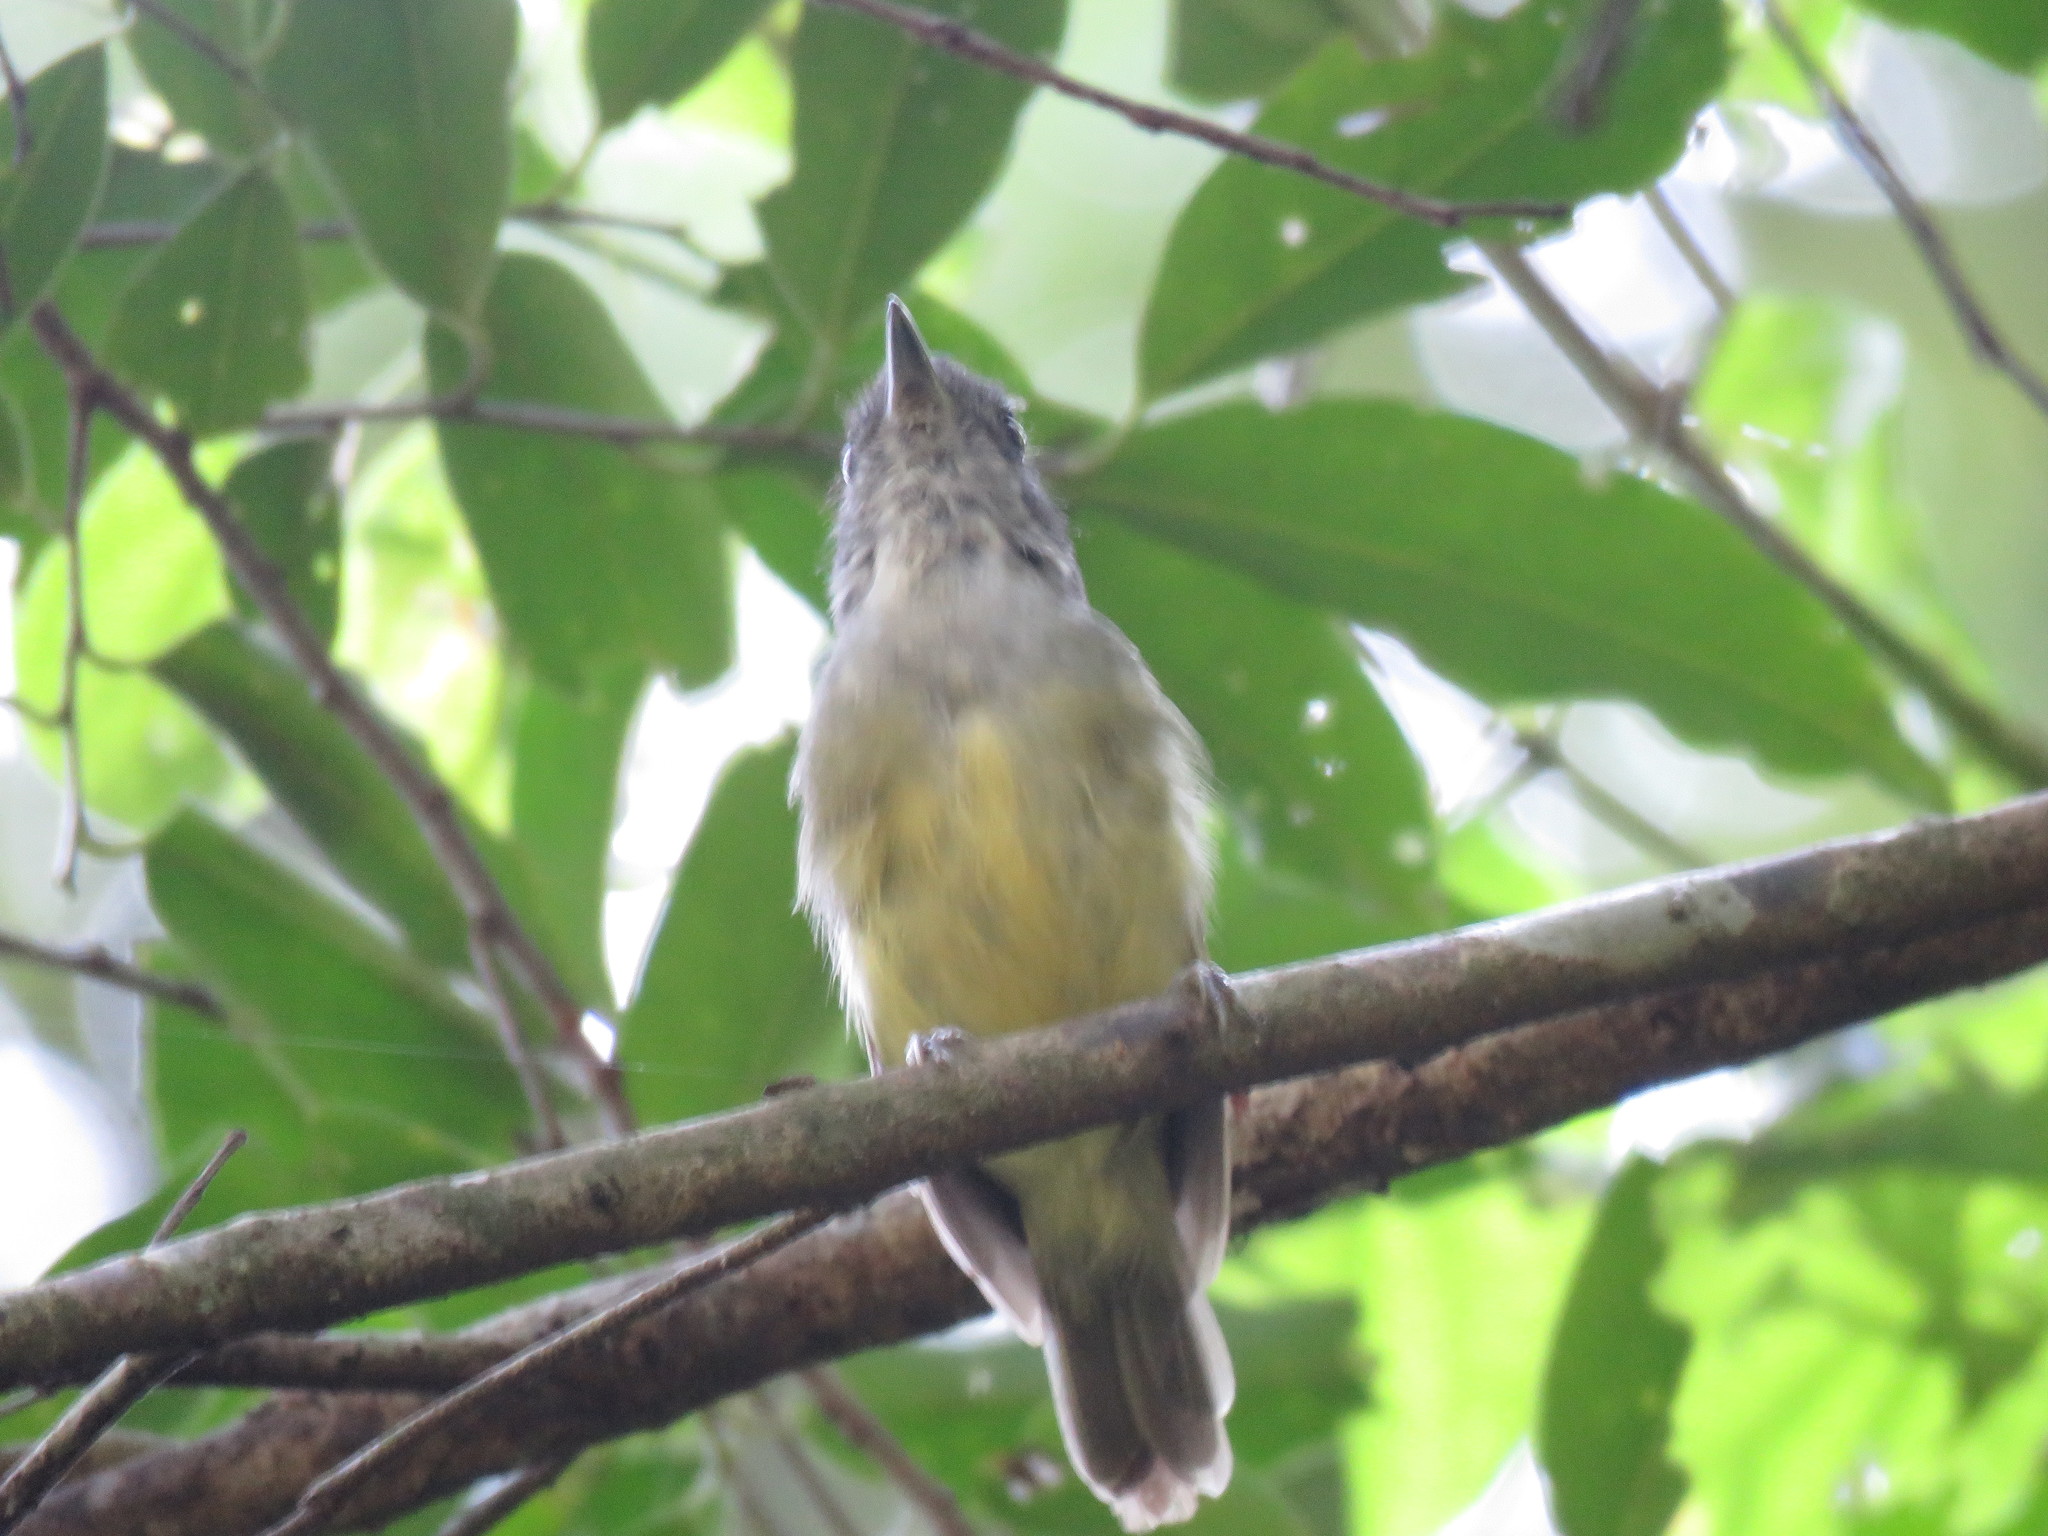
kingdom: Animalia
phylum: Chordata
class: Aves
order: Passeriformes
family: Thamnophilidae
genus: Dysithamnus
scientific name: Dysithamnus mentalis
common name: Plain antvireo
